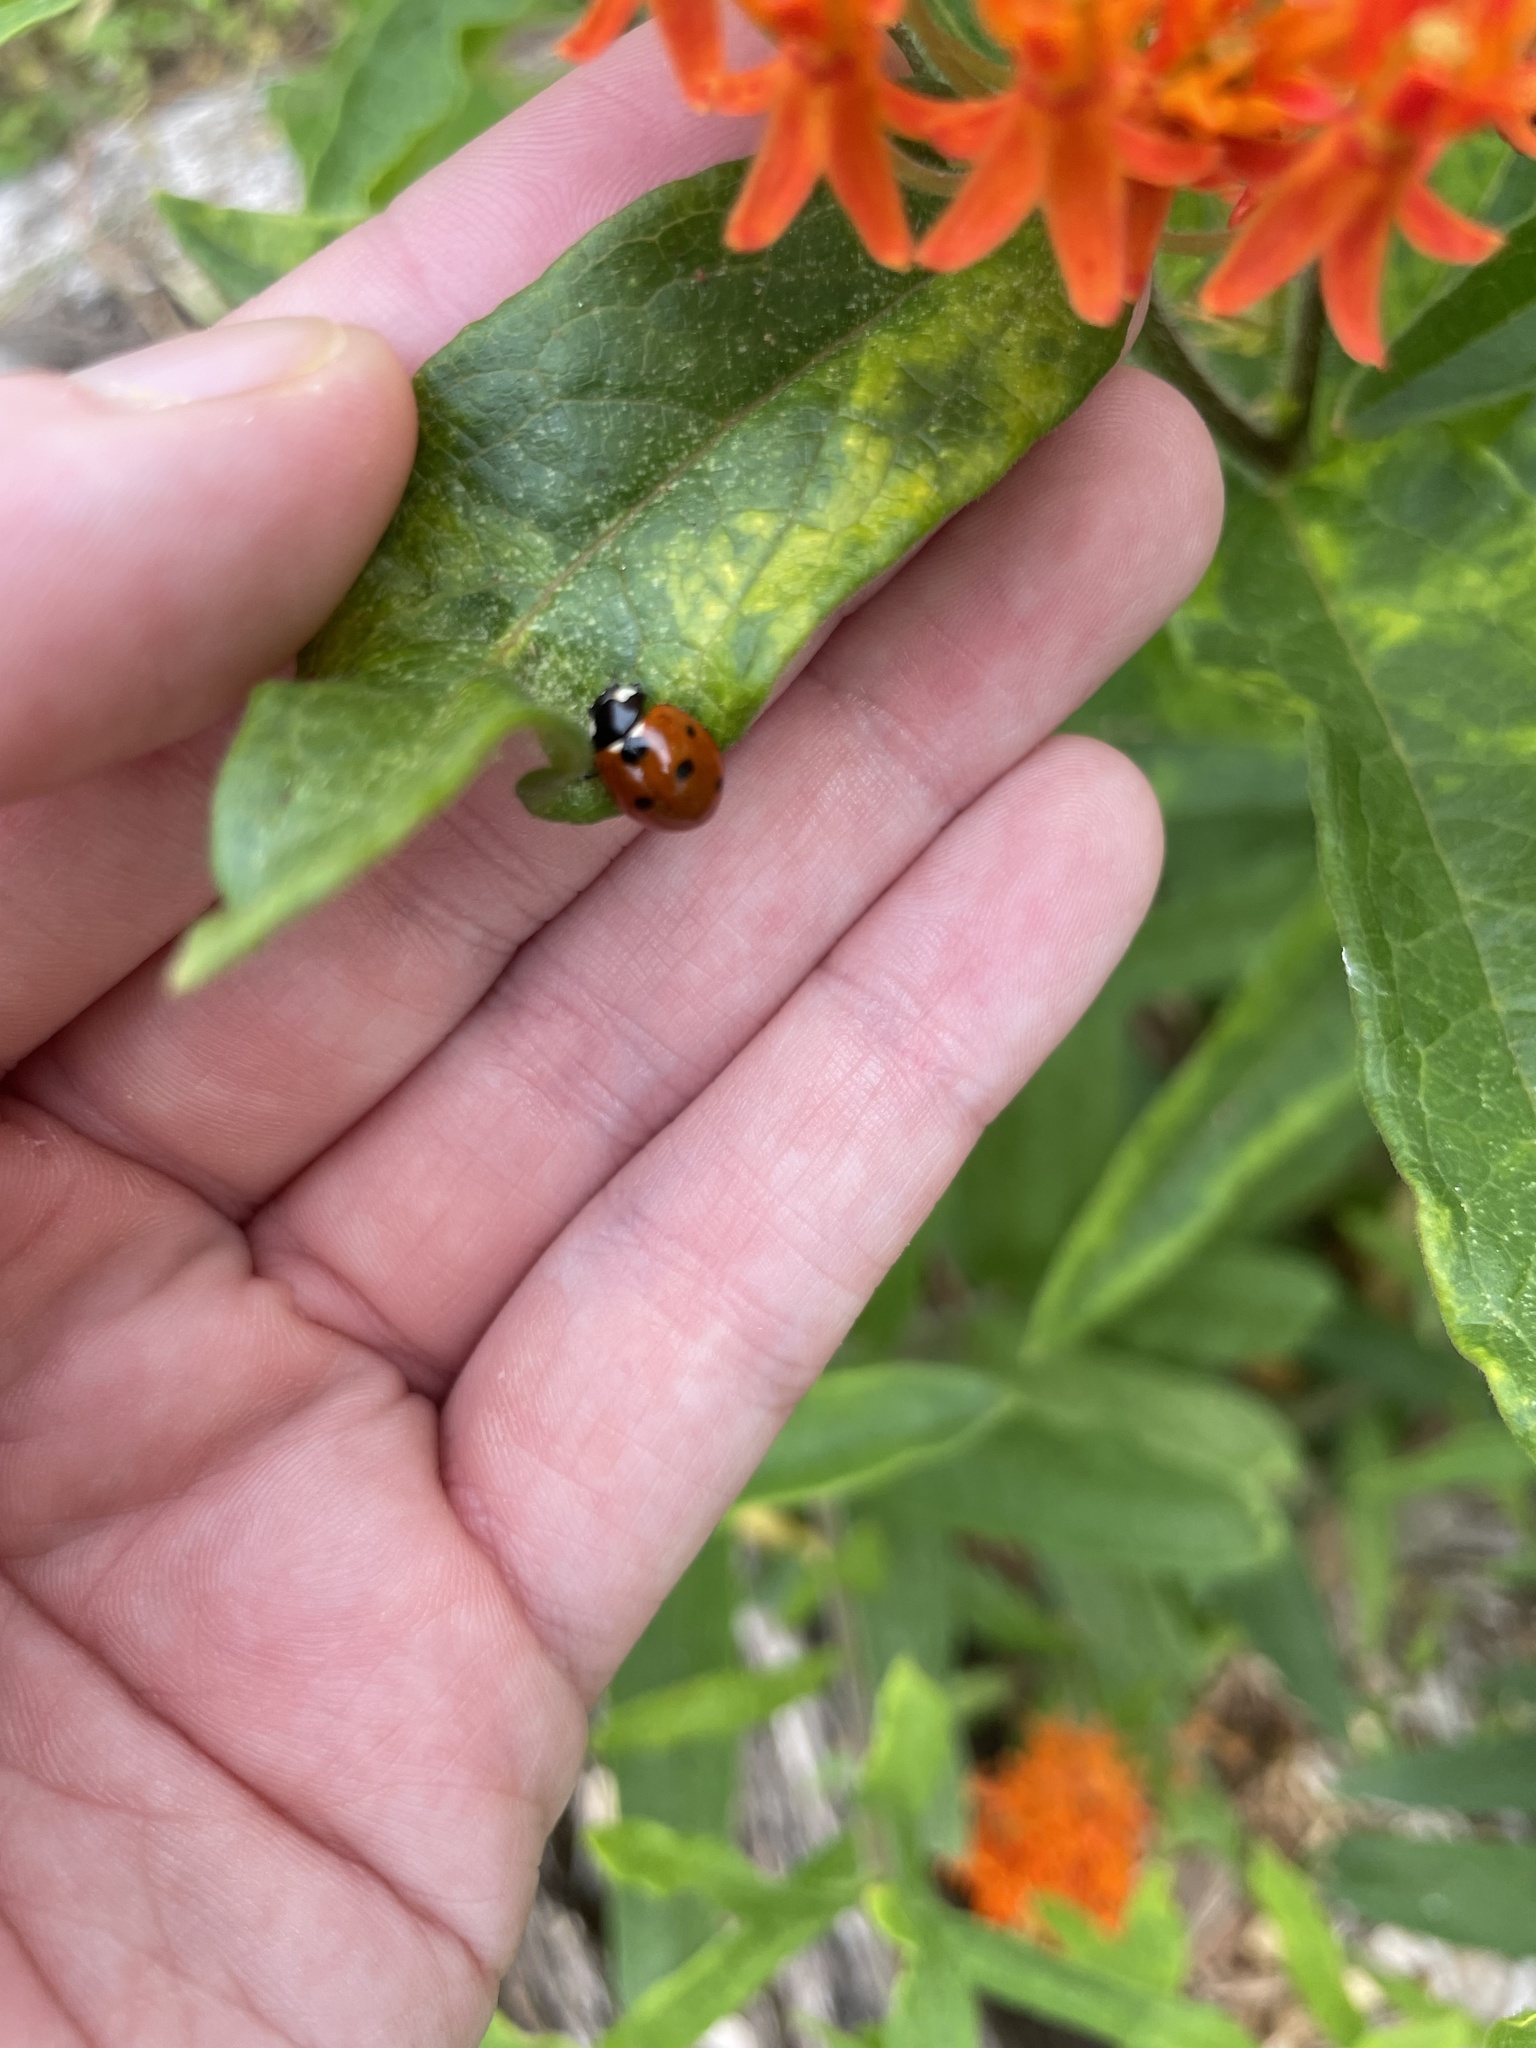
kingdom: Animalia
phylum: Arthropoda
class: Insecta
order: Coleoptera
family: Coccinellidae
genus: Coccinella
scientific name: Coccinella septempunctata
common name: Sevenspotted lady beetle
